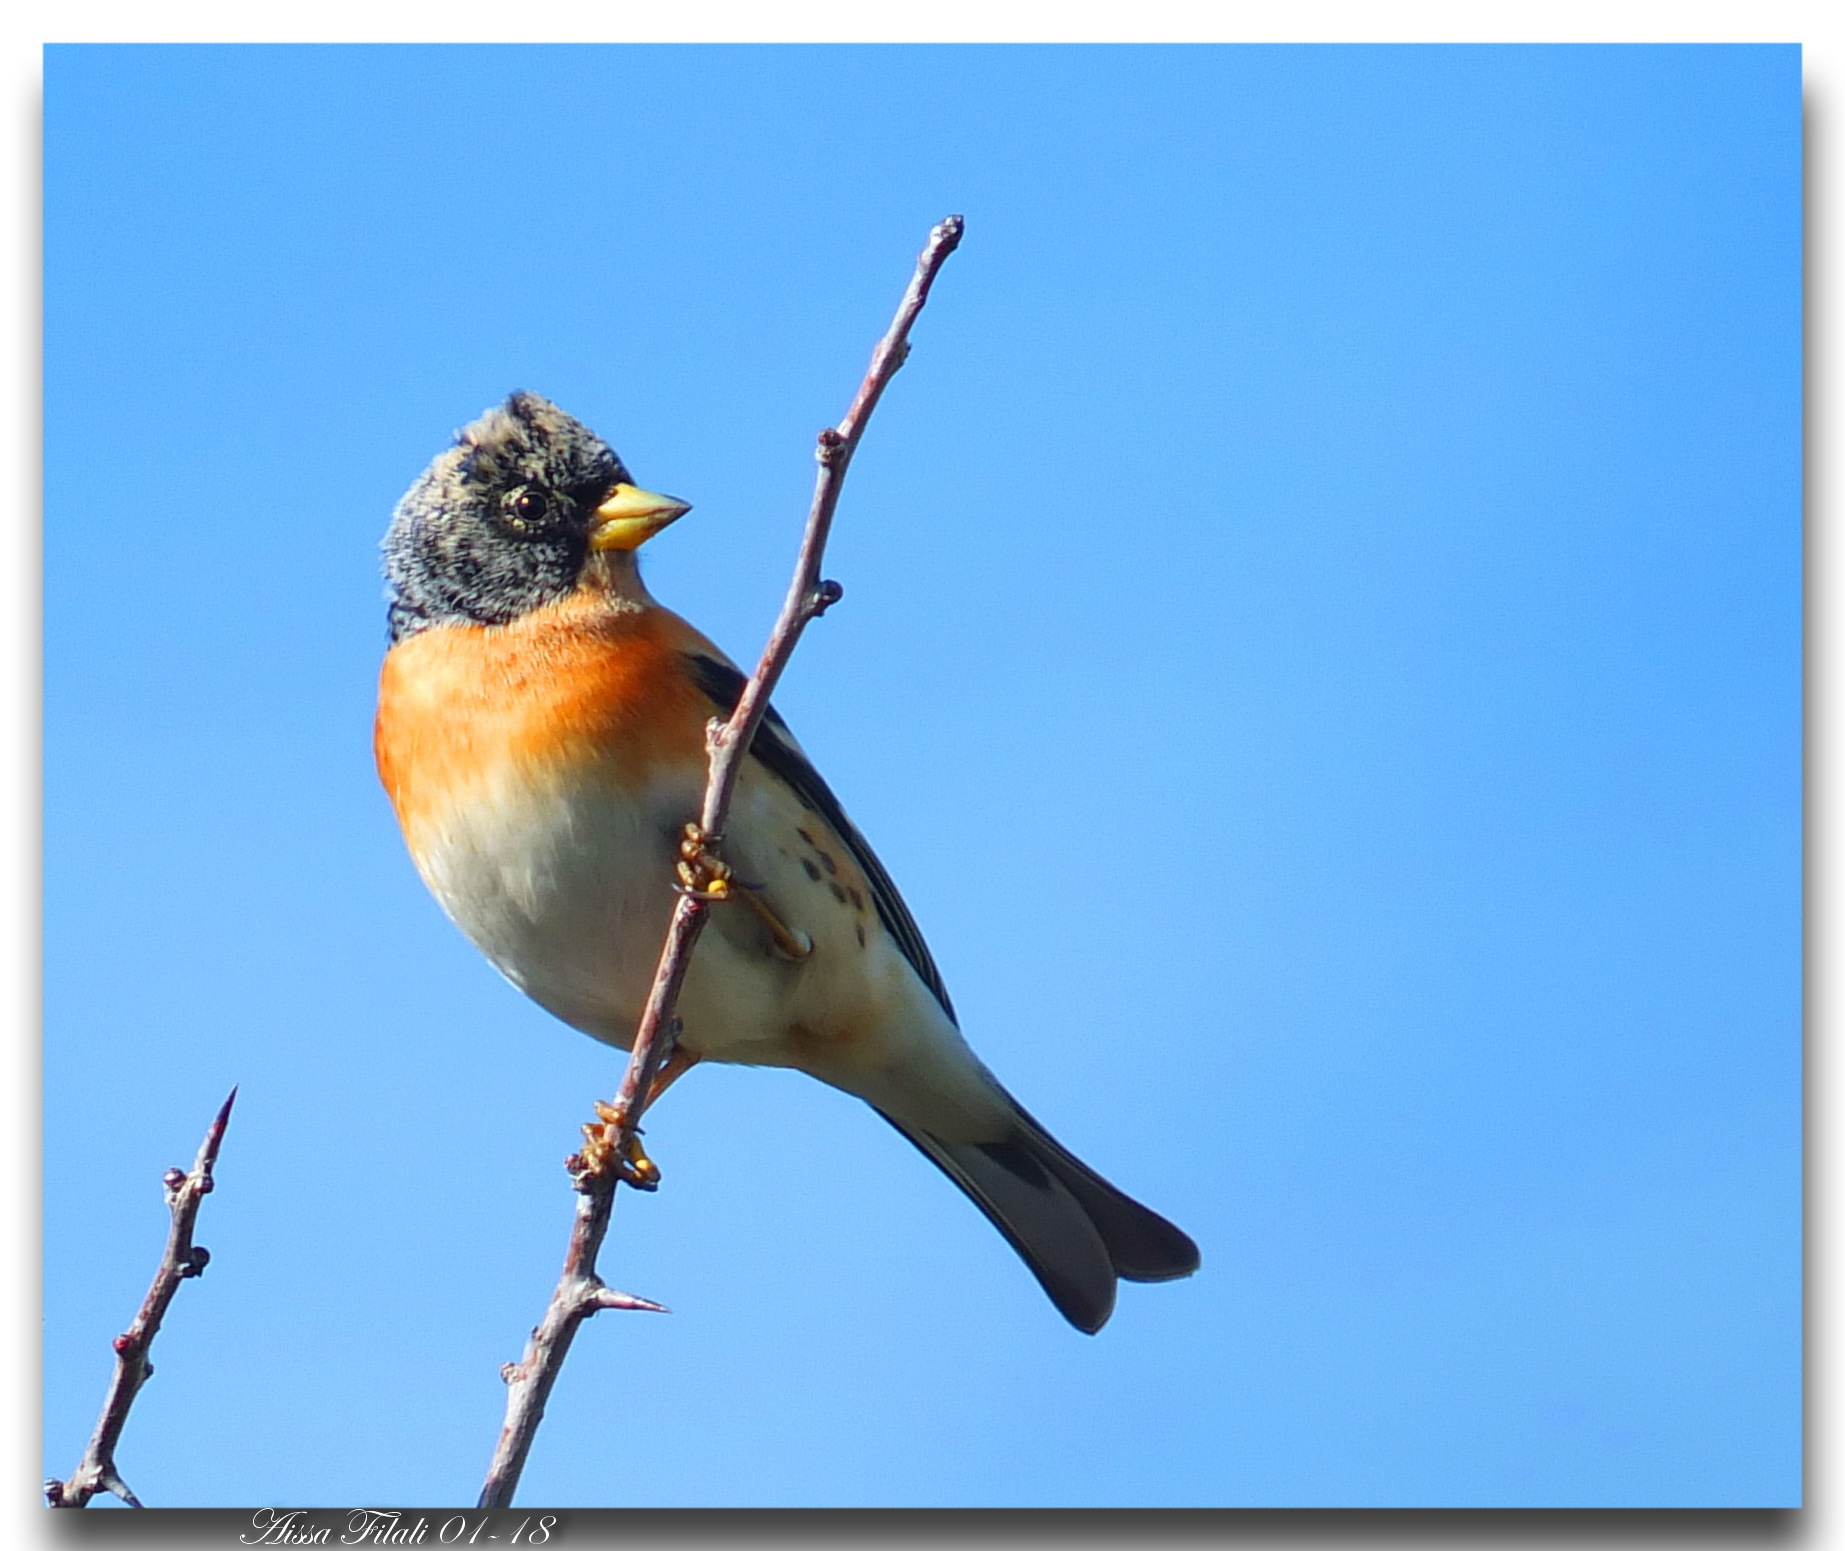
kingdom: Animalia
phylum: Chordata
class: Aves
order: Passeriformes
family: Fringillidae
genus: Fringilla
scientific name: Fringilla montifringilla
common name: Brambling
